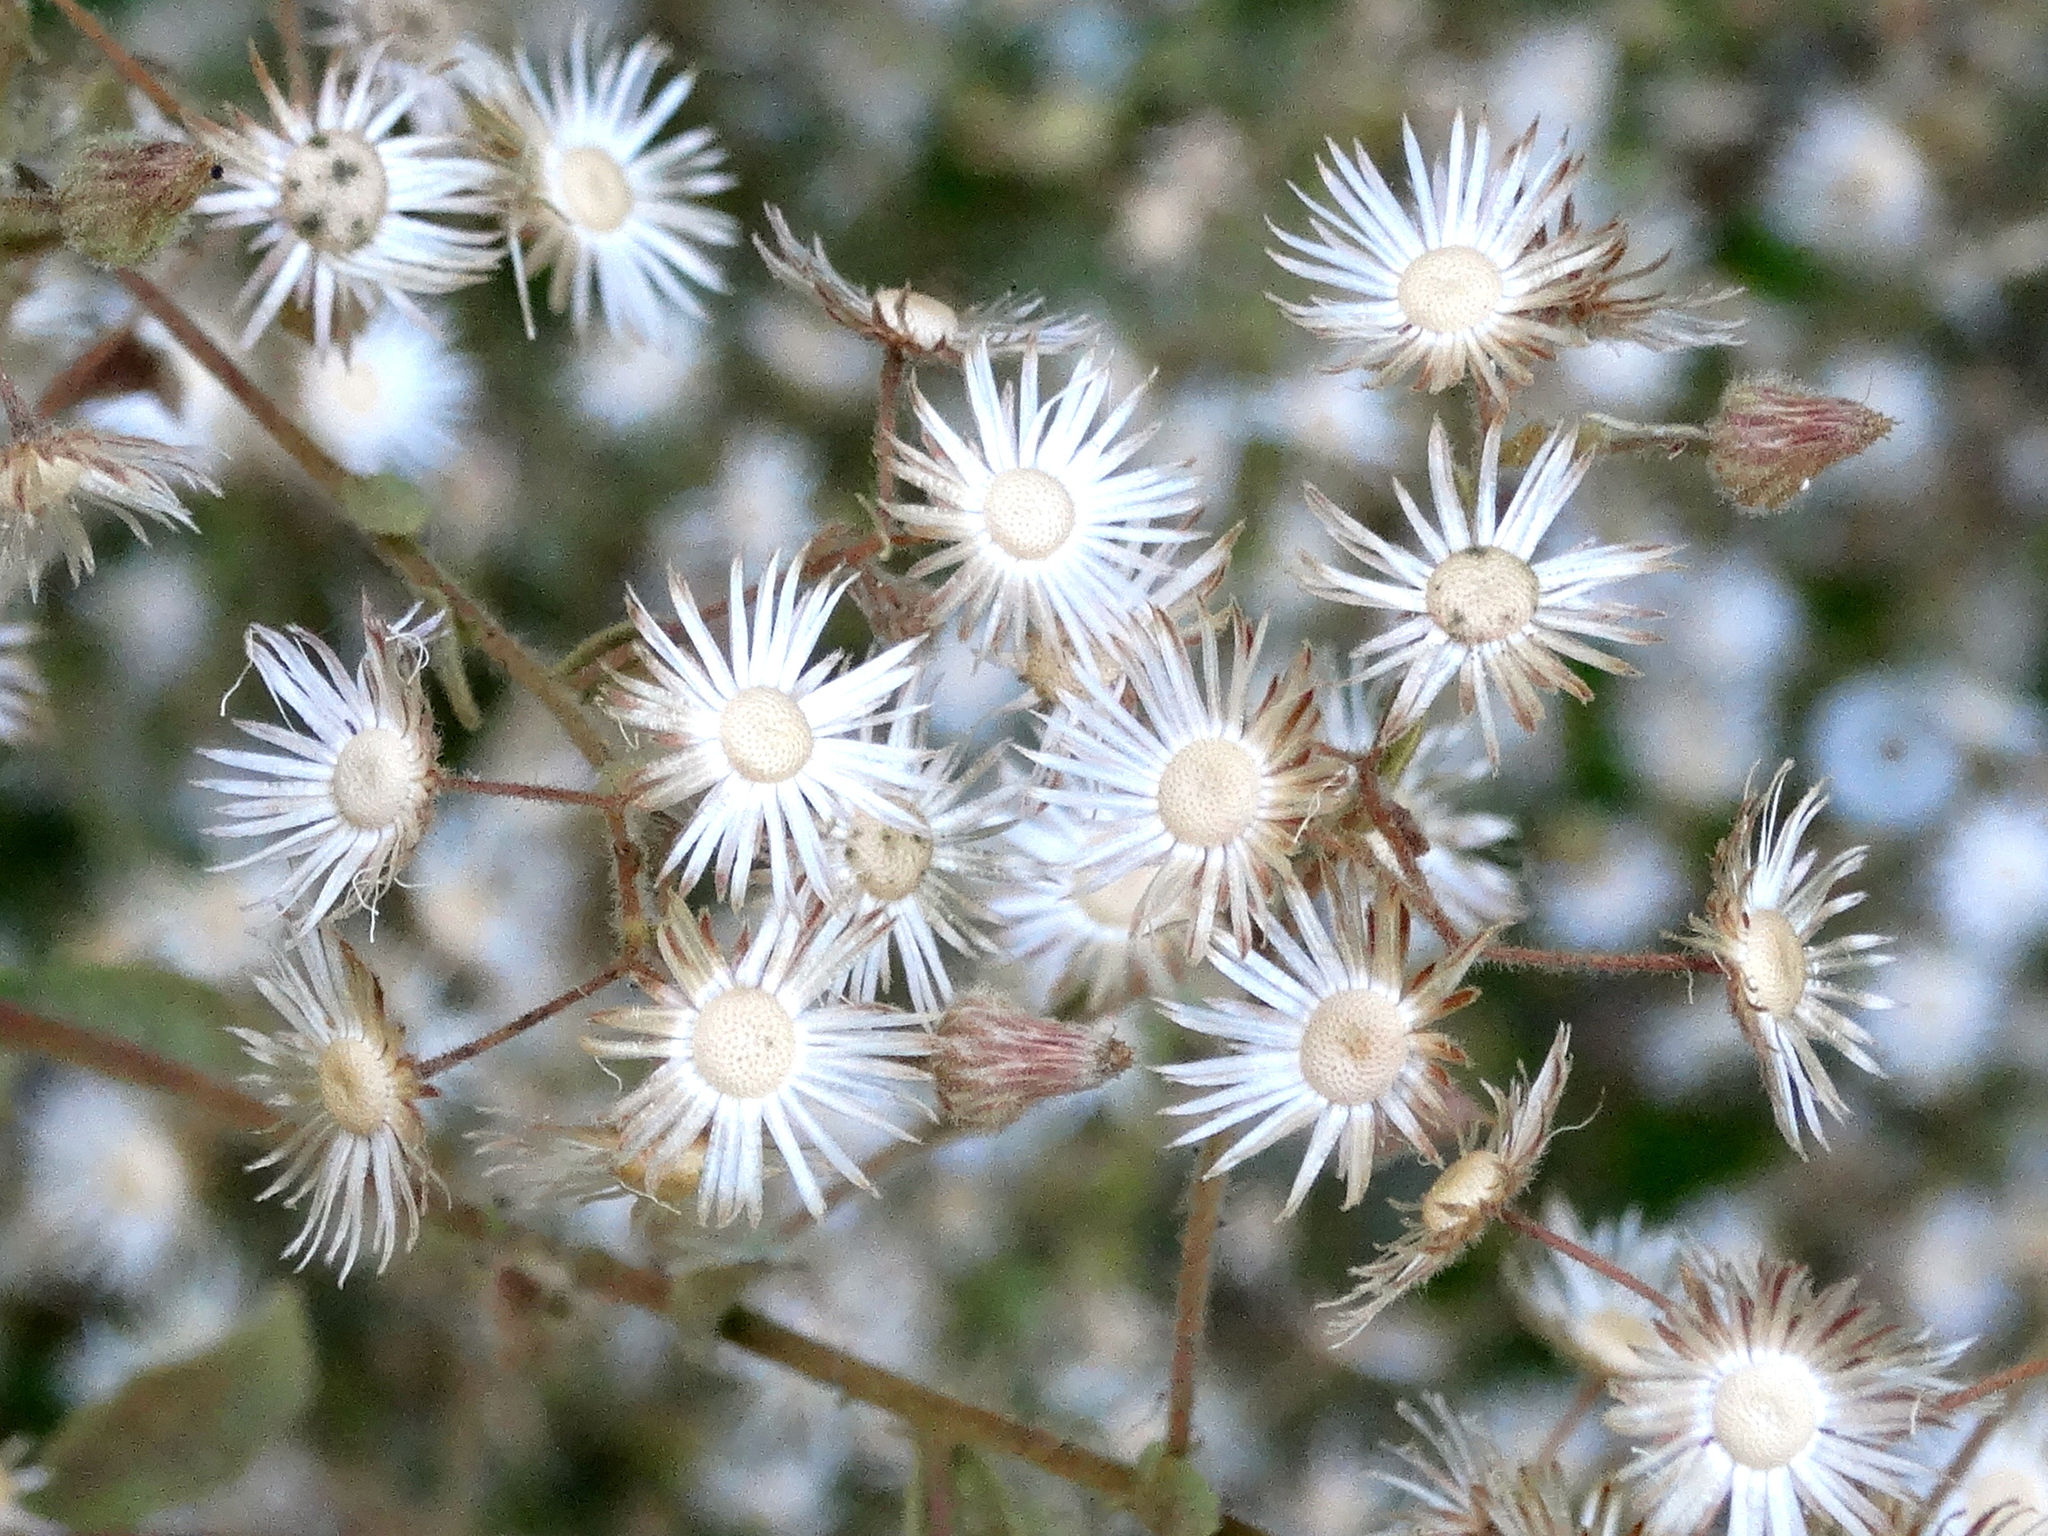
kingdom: Plantae
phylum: Tracheophyta
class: Magnoliopsida
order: Asterales
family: Asteraceae
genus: Pseudoconyza
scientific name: Pseudoconyza viscosa
